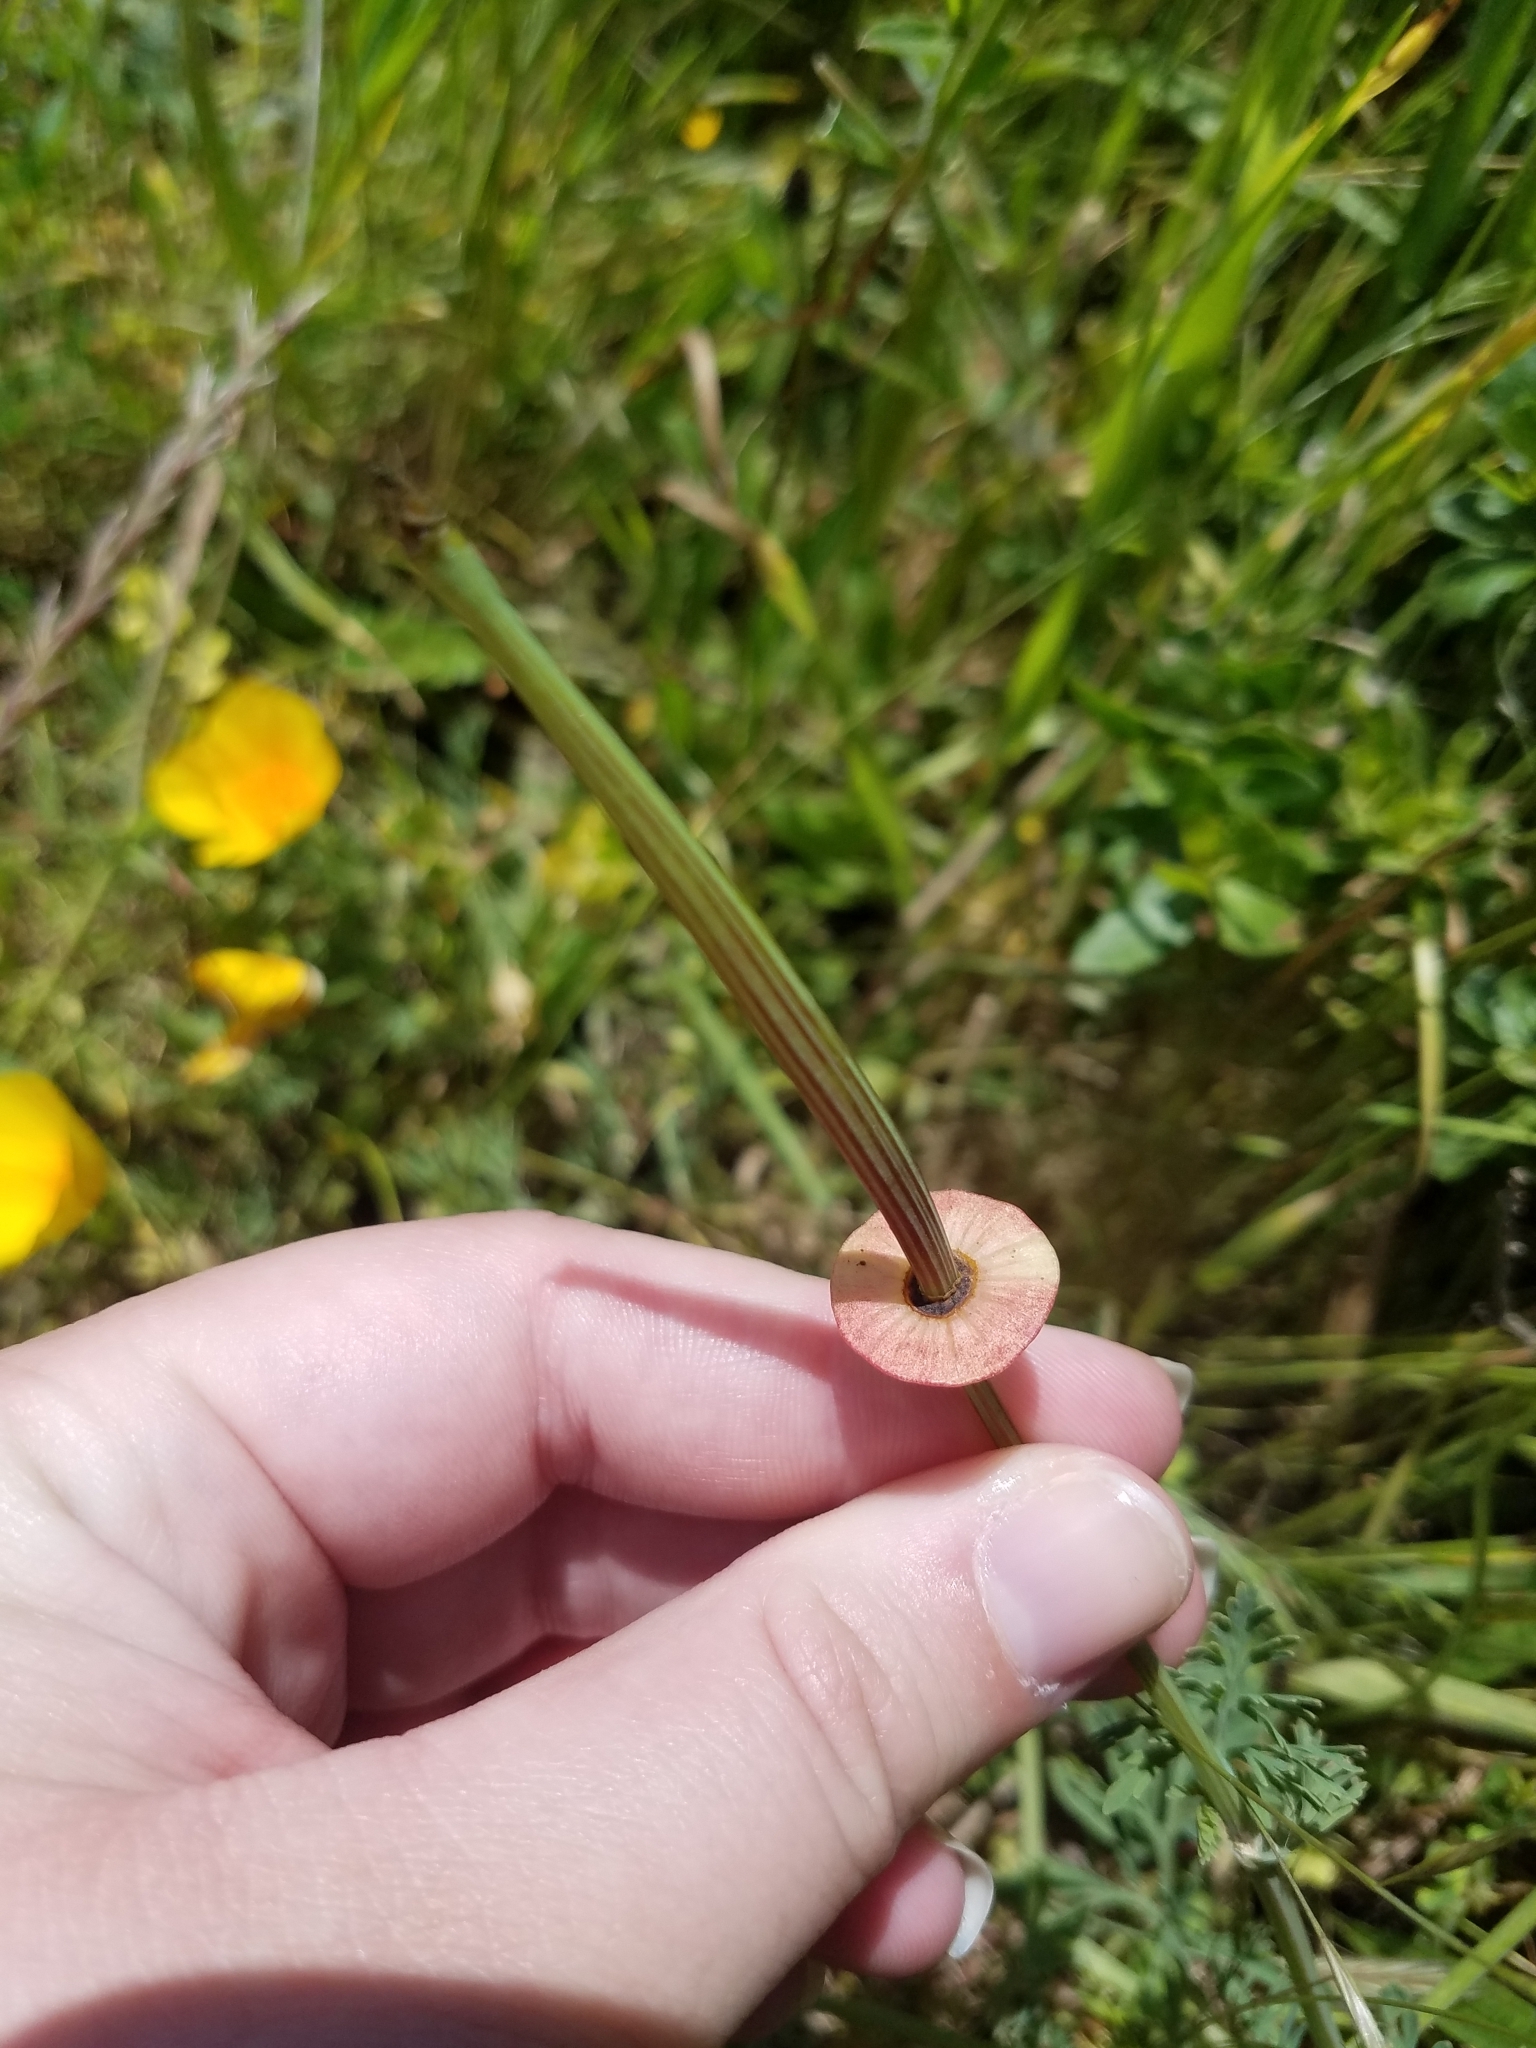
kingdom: Plantae
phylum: Tracheophyta
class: Magnoliopsida
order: Ranunculales
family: Papaveraceae
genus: Eschscholzia
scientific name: Eschscholzia californica
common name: California poppy
